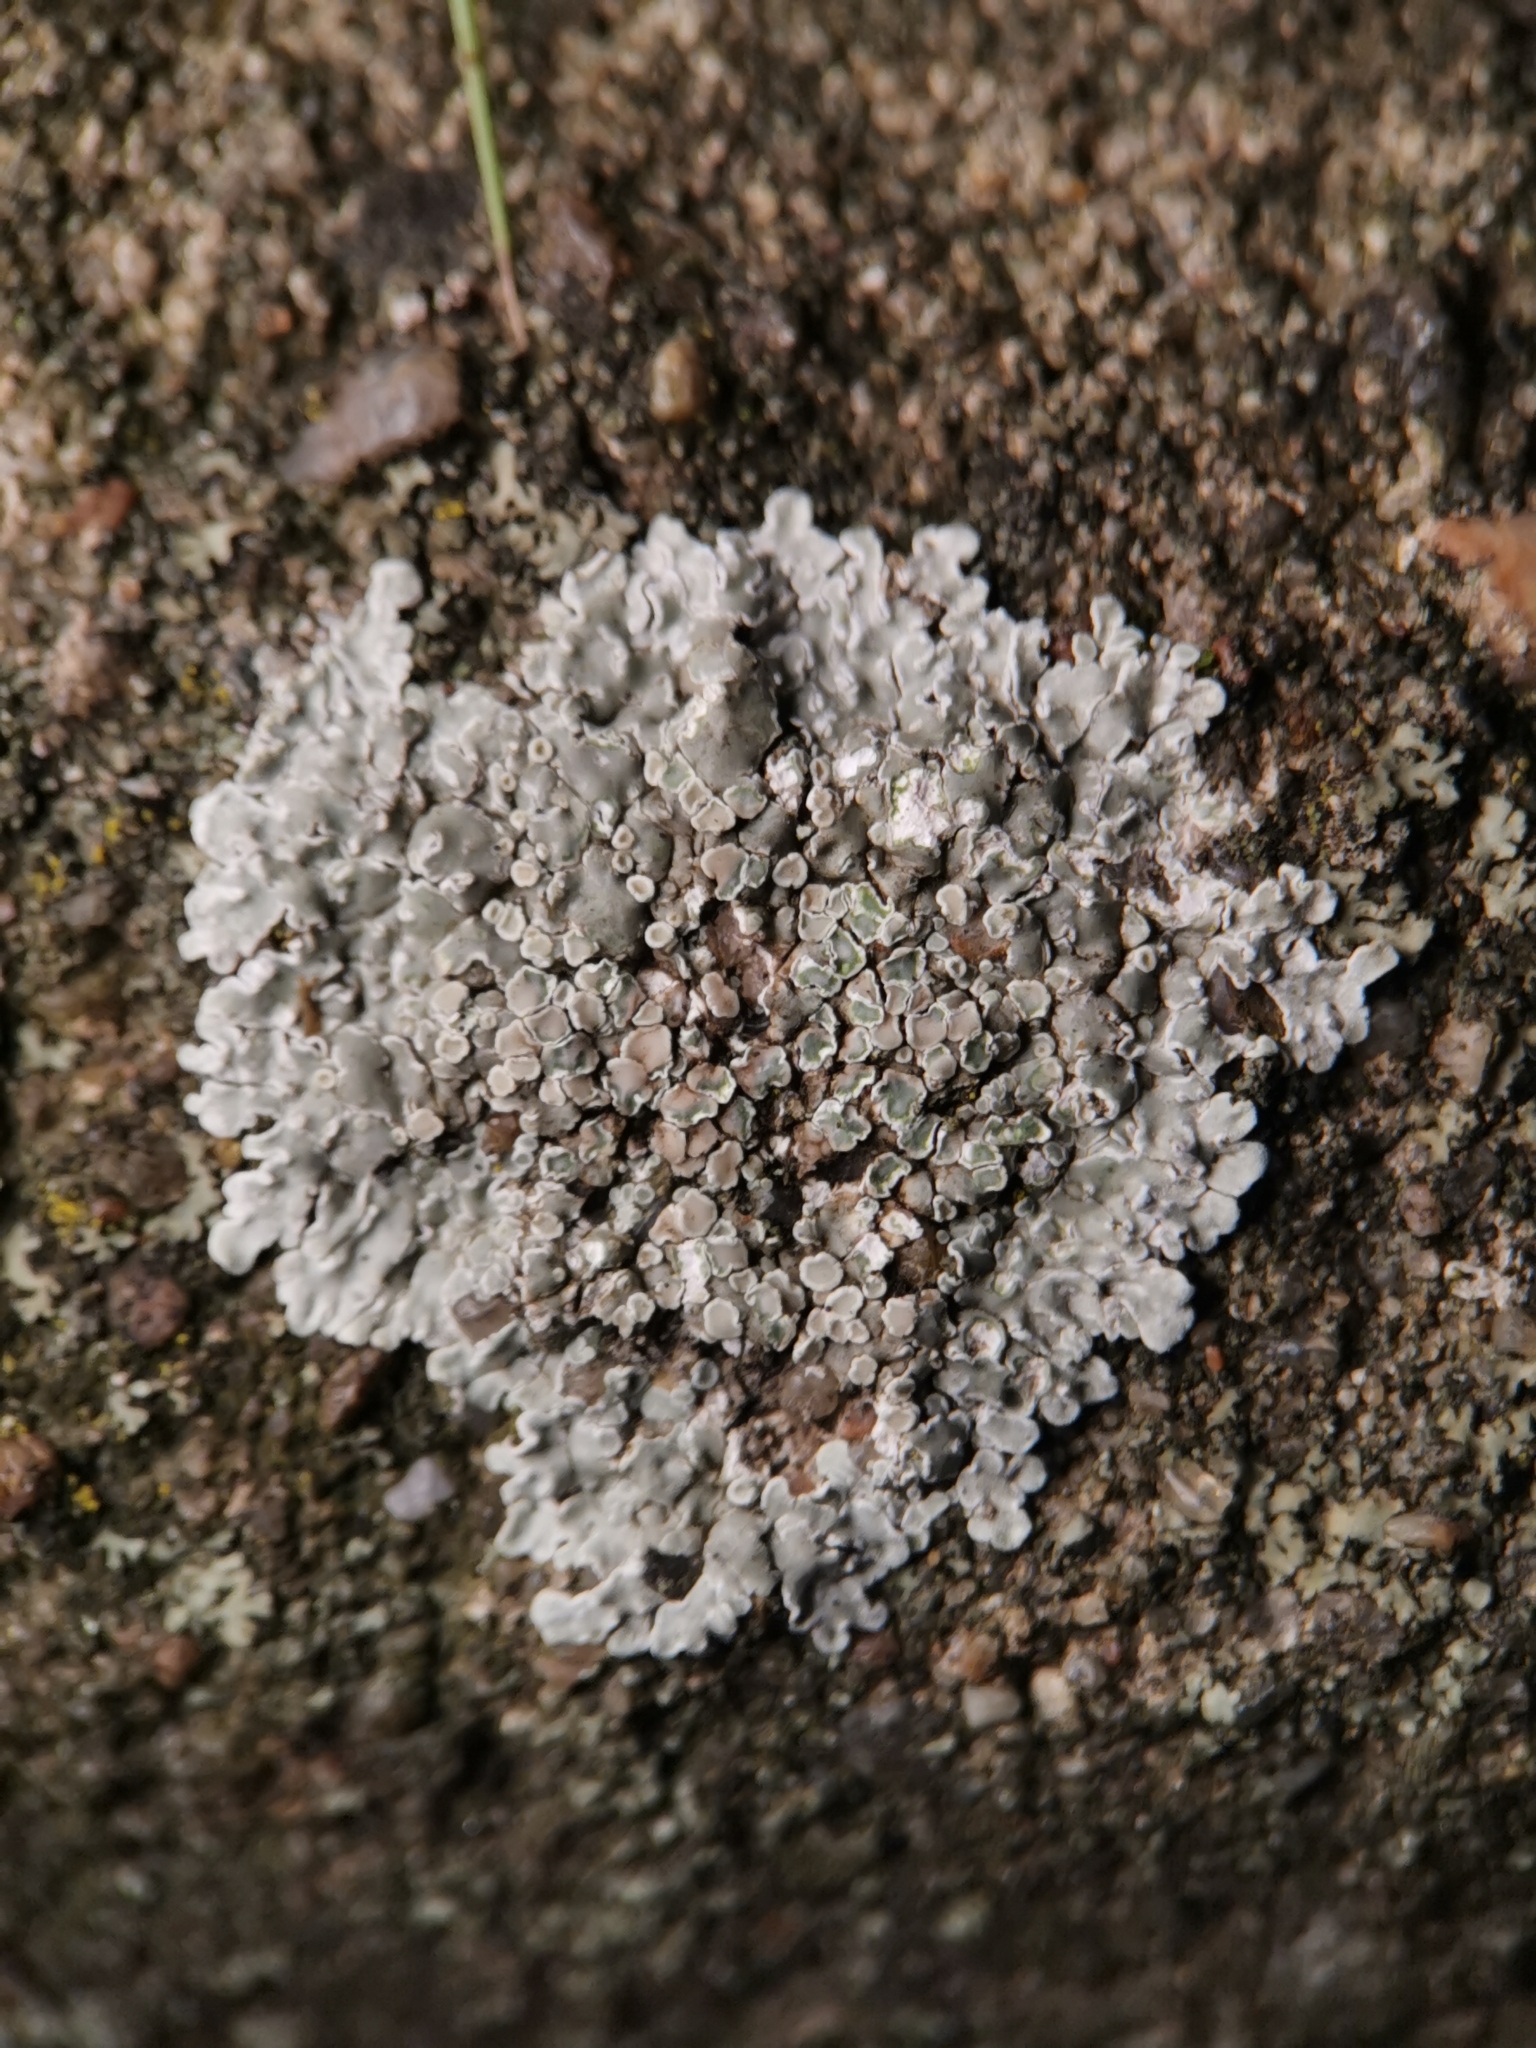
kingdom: Fungi
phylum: Ascomycota
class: Lecanoromycetes
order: Lecanorales
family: Lecanoraceae
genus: Protoparmeliopsis
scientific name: Protoparmeliopsis muralis
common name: Stonewall rim lichen
